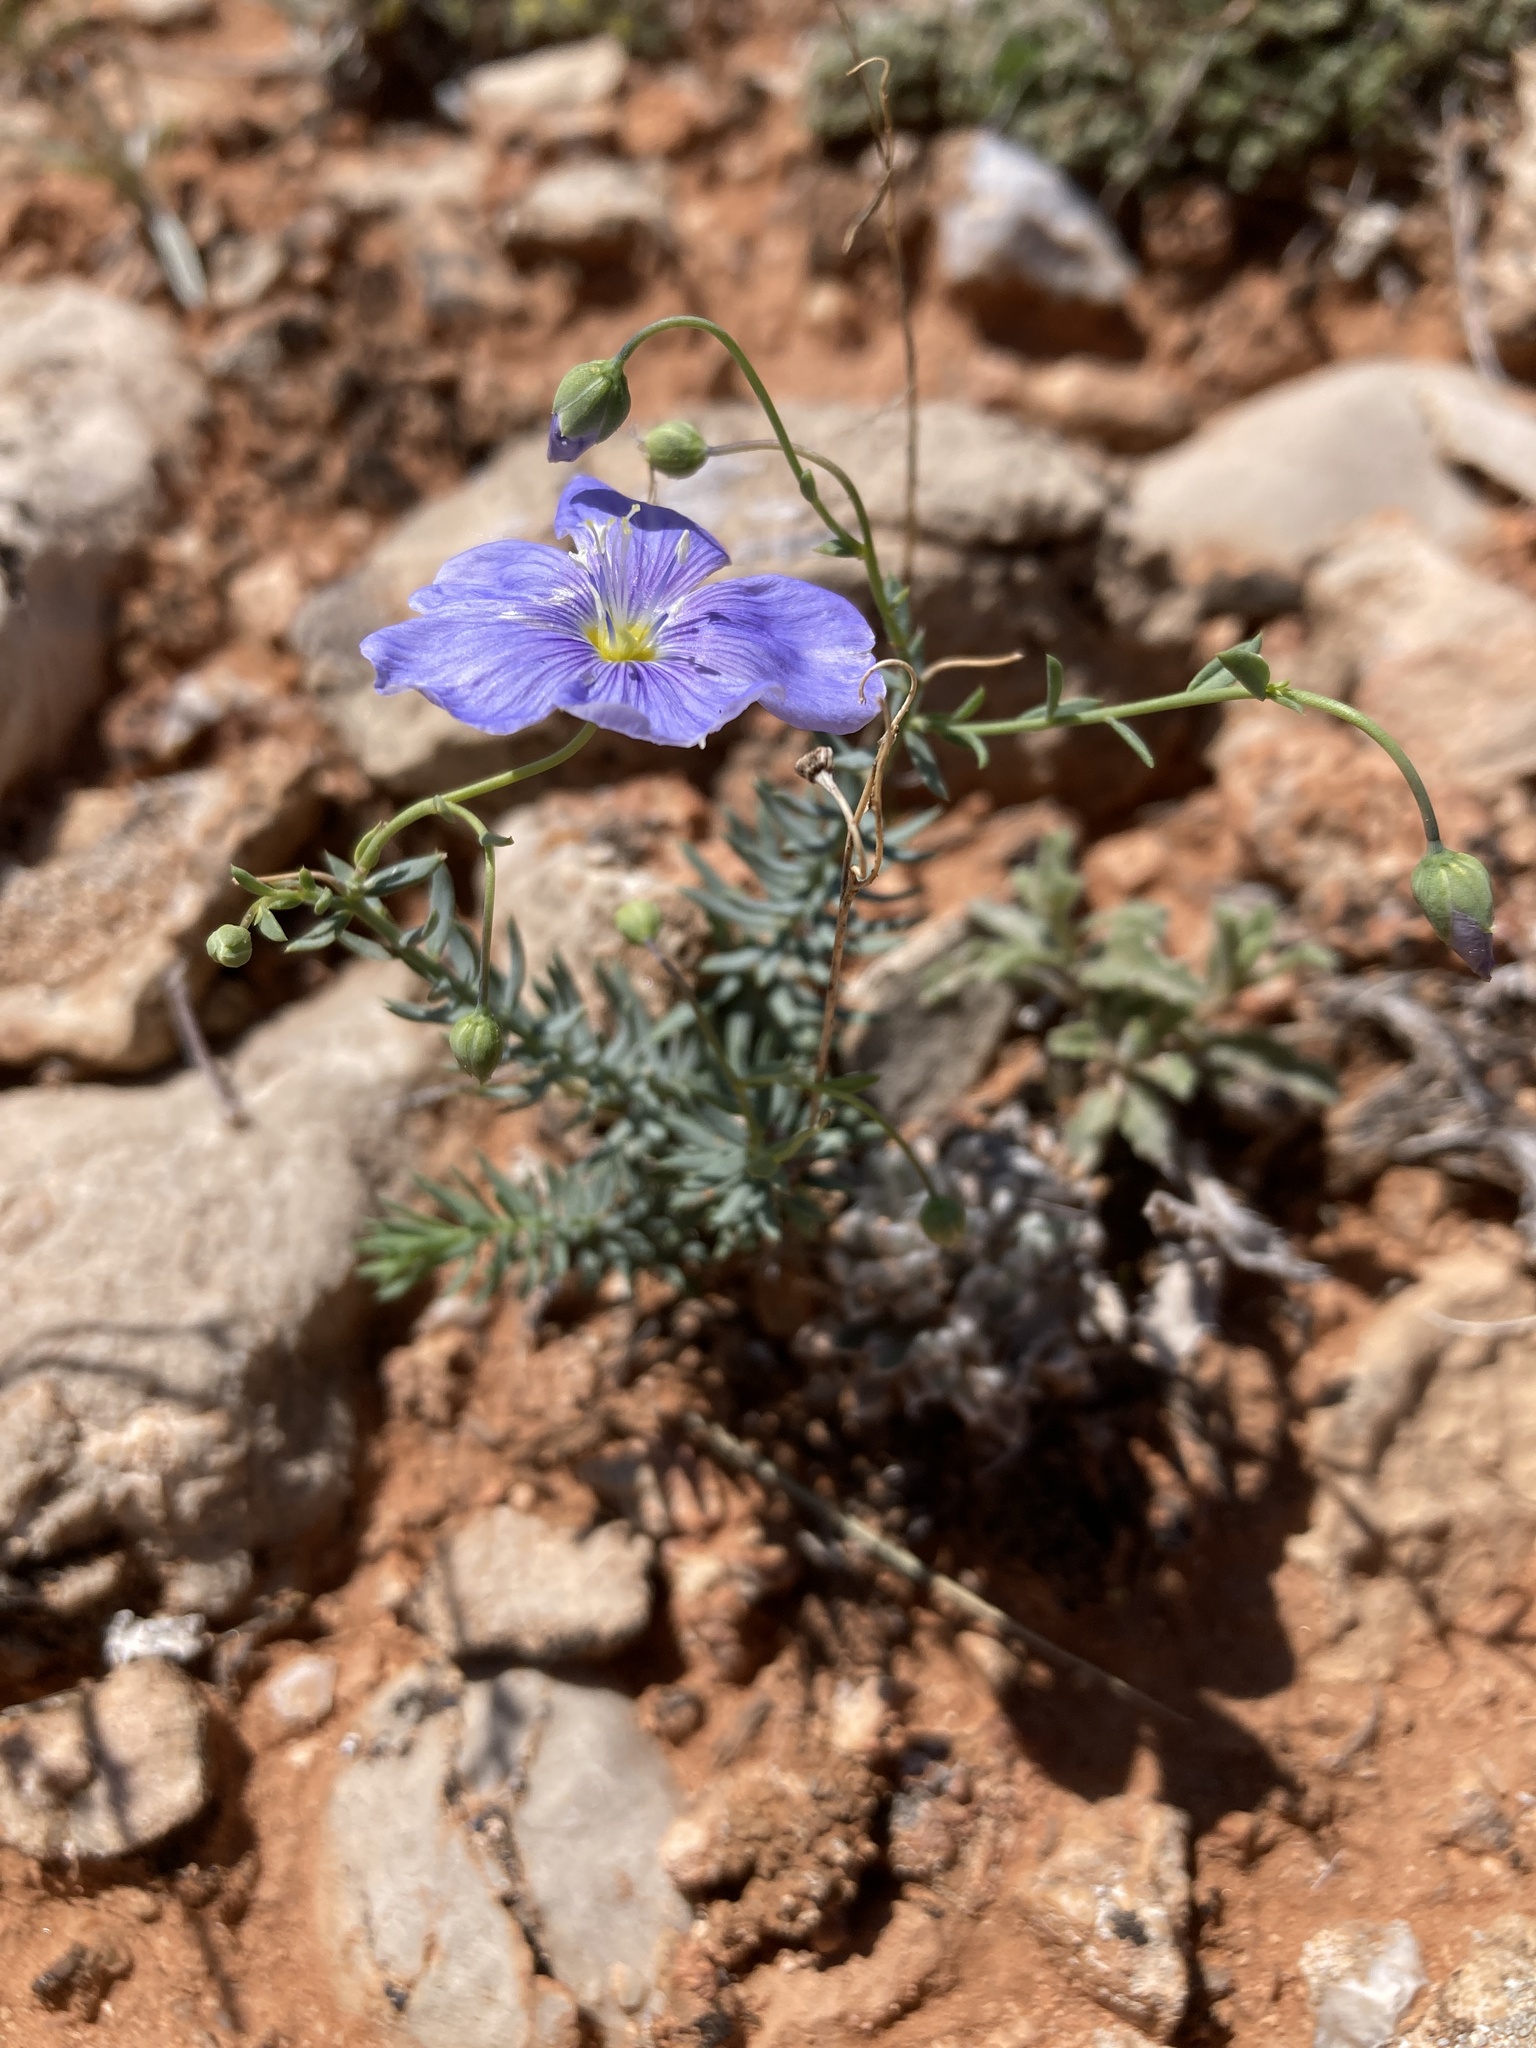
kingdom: Plantae
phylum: Tracheophyta
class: Magnoliopsida
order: Malpighiales
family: Linaceae
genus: Linum
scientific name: Linum lewisii
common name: Prairie flax
